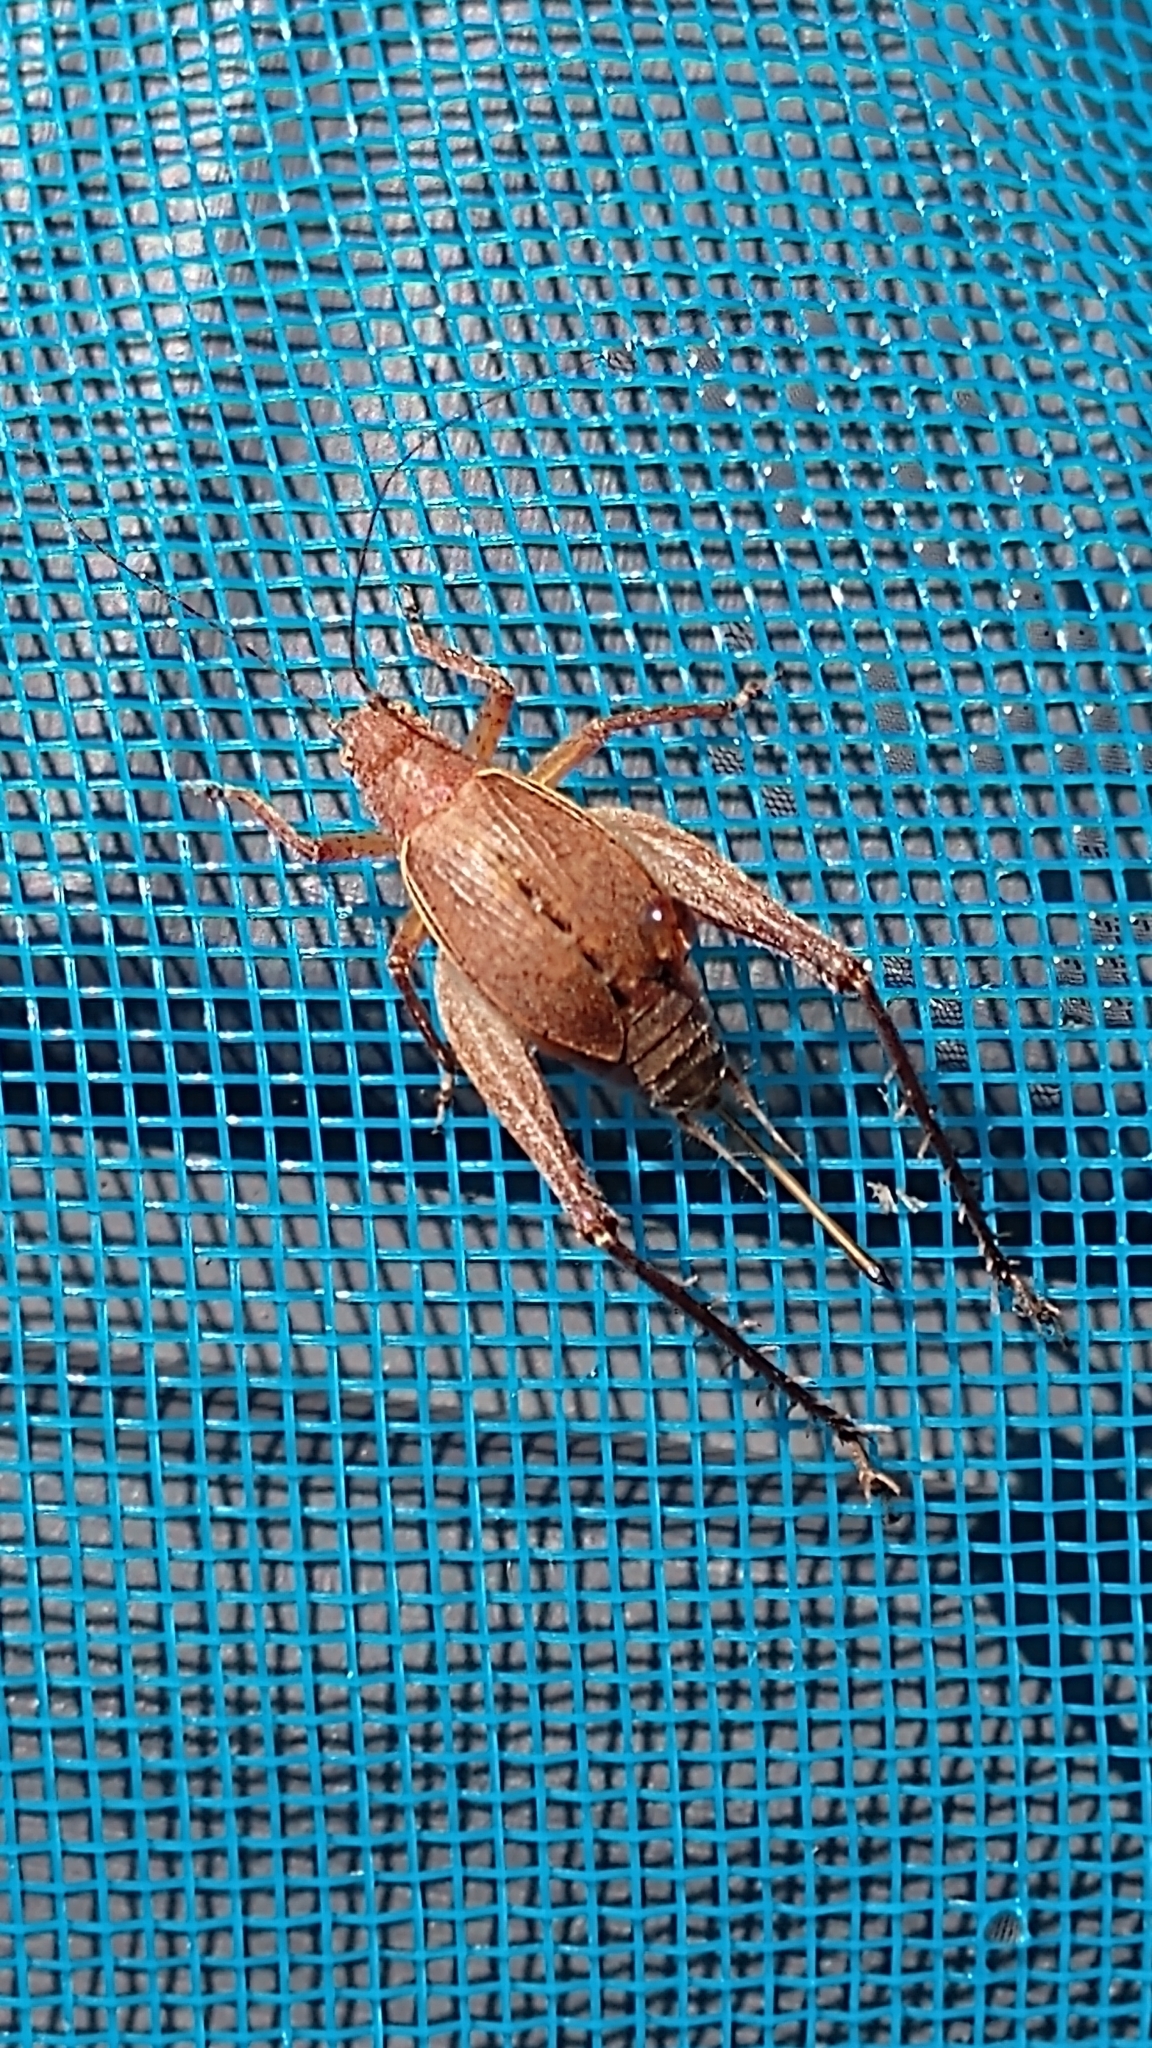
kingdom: Animalia
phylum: Arthropoda
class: Insecta
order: Orthoptera
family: Gryllidae
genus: Hapithus
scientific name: Hapithus agitator
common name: Restless bush cricket
